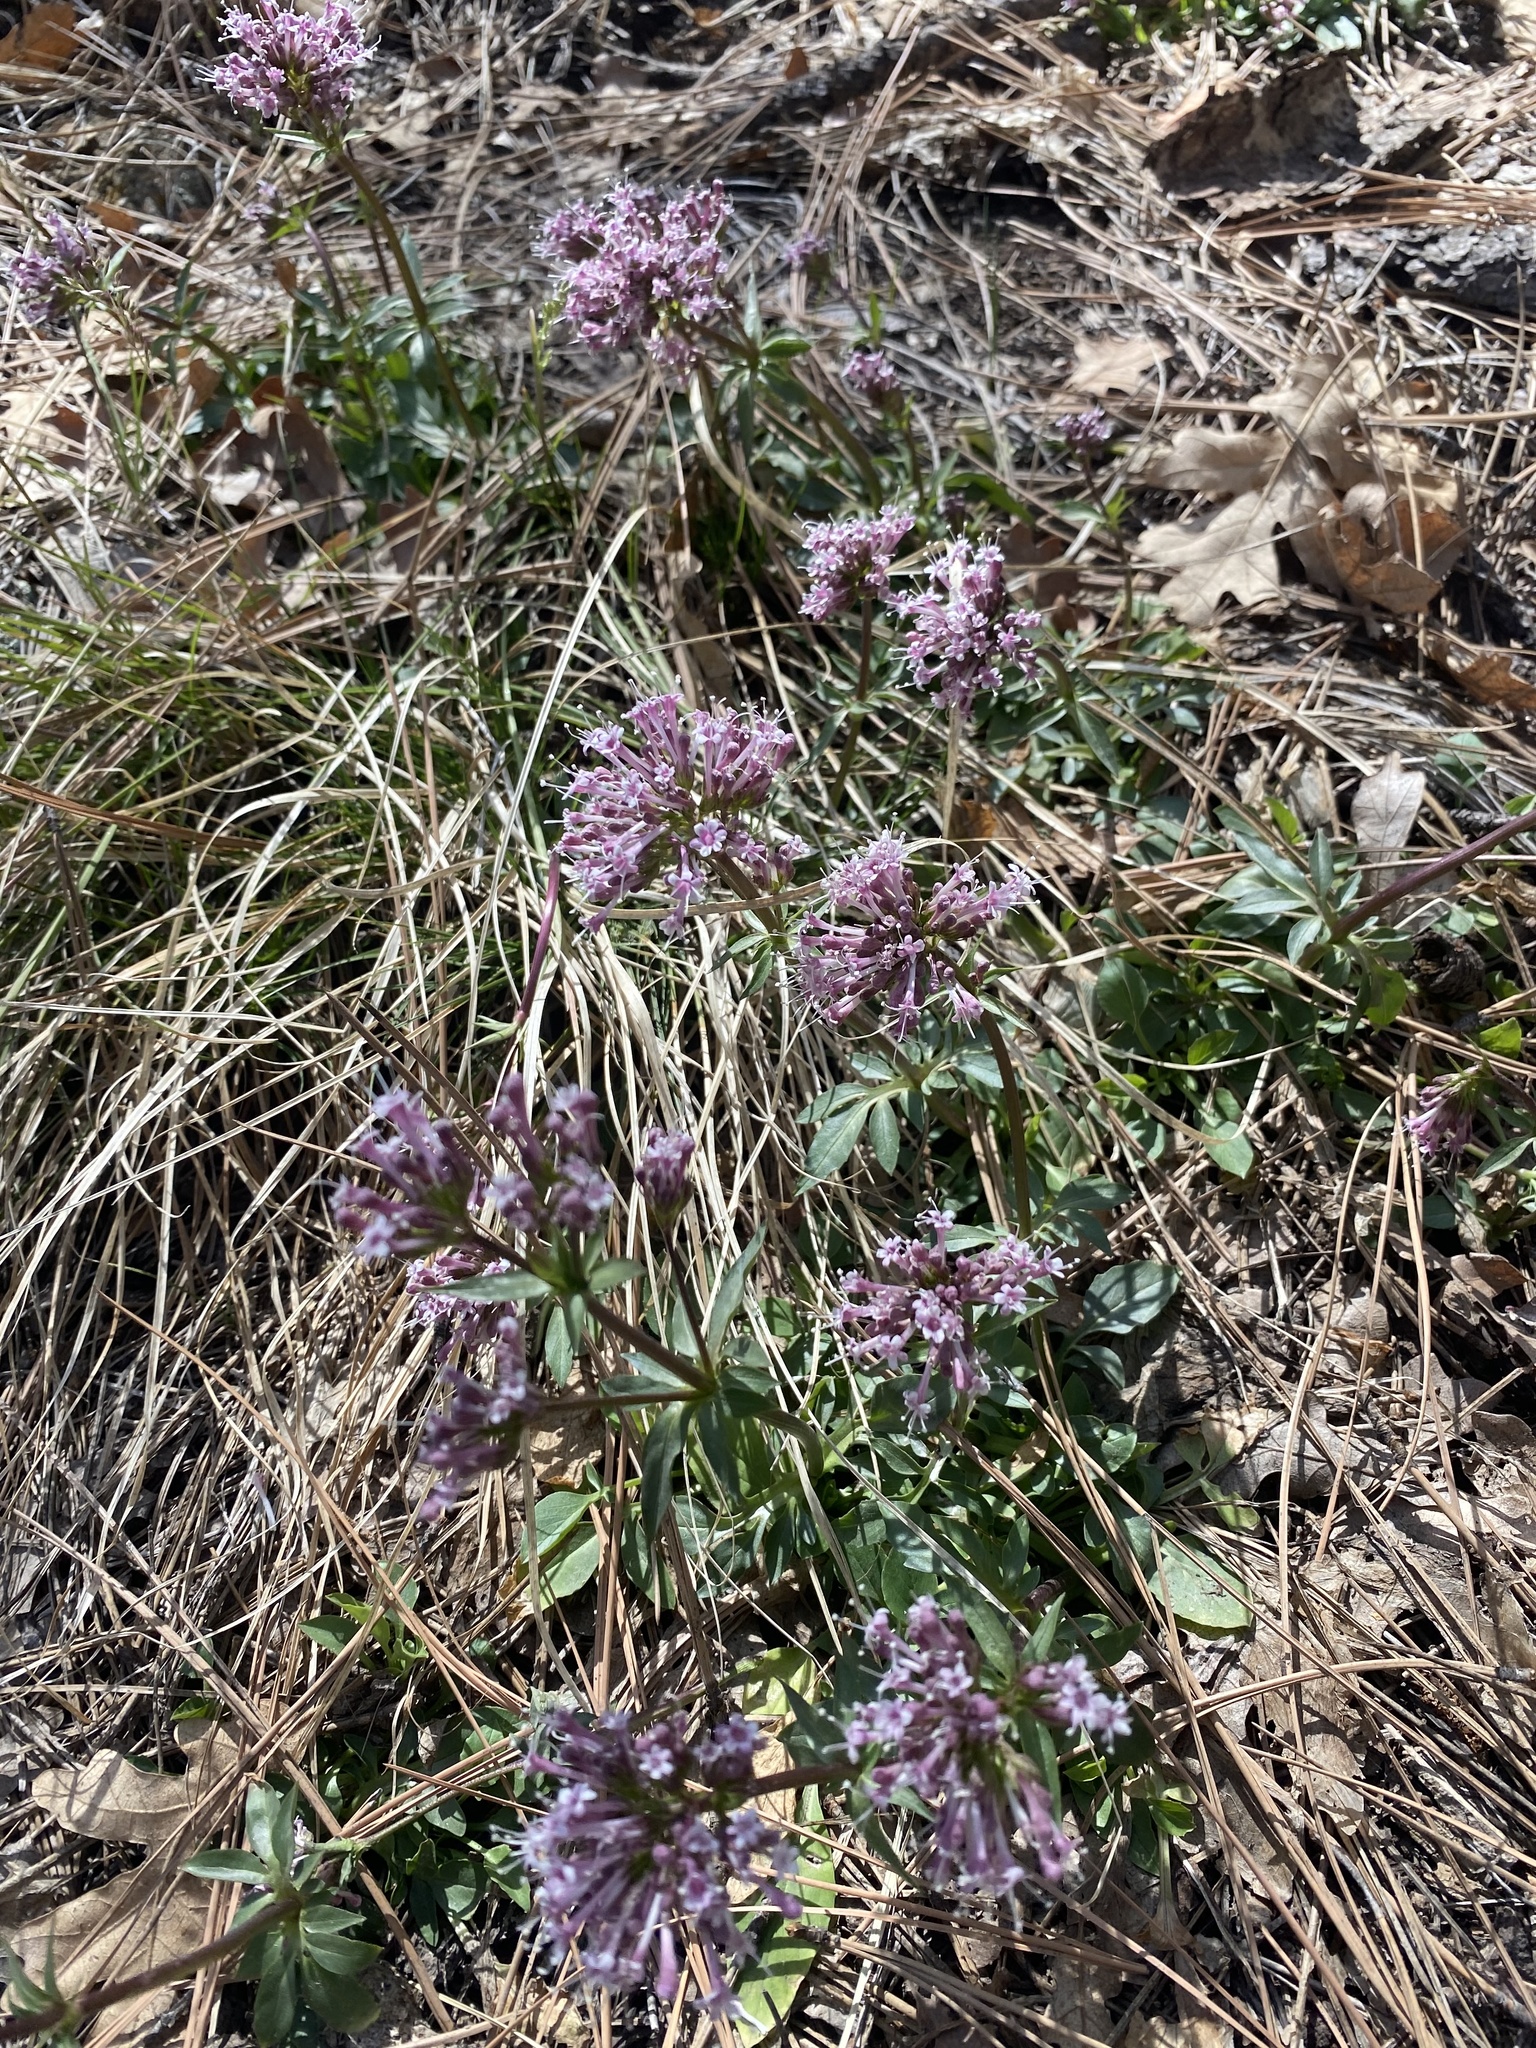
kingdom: Plantae
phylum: Tracheophyta
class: Magnoliopsida
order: Dipsacales
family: Caprifoliaceae
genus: Valeriana
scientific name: Valeriana arizonica
